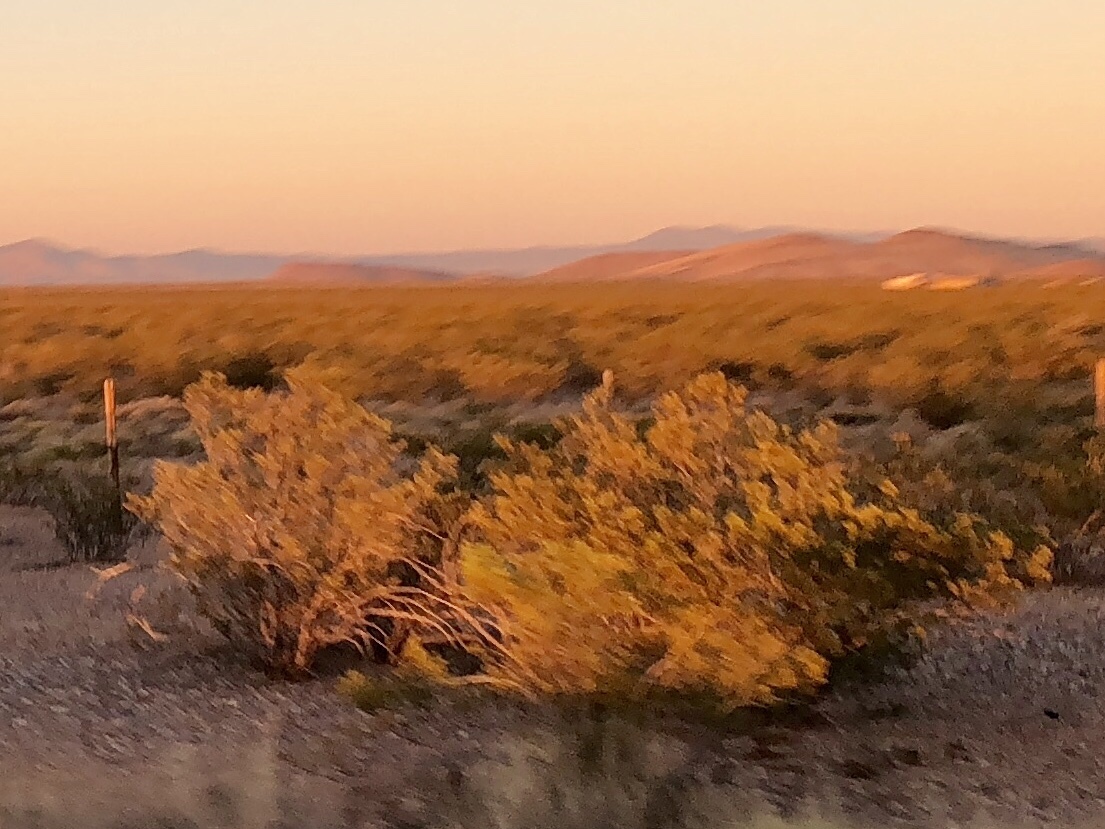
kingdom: Plantae
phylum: Tracheophyta
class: Magnoliopsida
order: Zygophyllales
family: Zygophyllaceae
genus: Larrea
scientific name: Larrea tridentata
